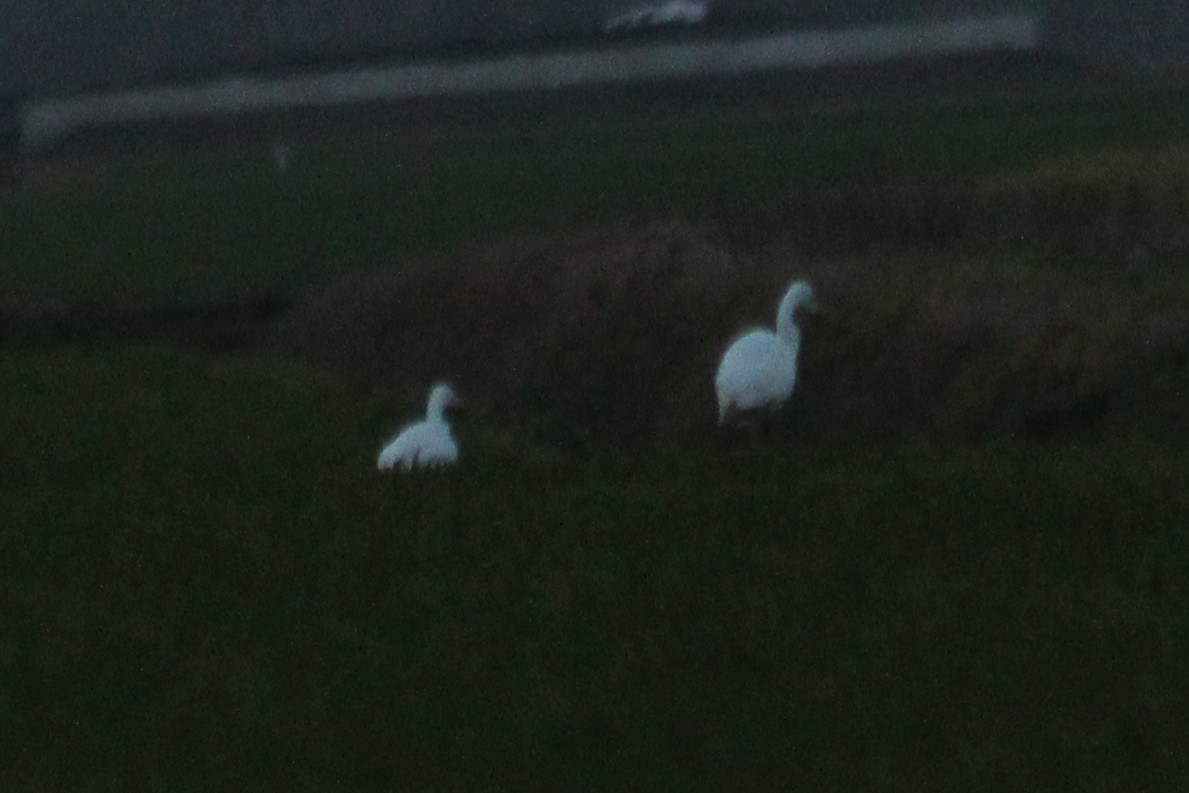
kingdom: Animalia
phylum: Chordata
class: Aves
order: Pelecaniformes
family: Ardeidae
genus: Ardea
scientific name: Ardea alba
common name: Great egret
